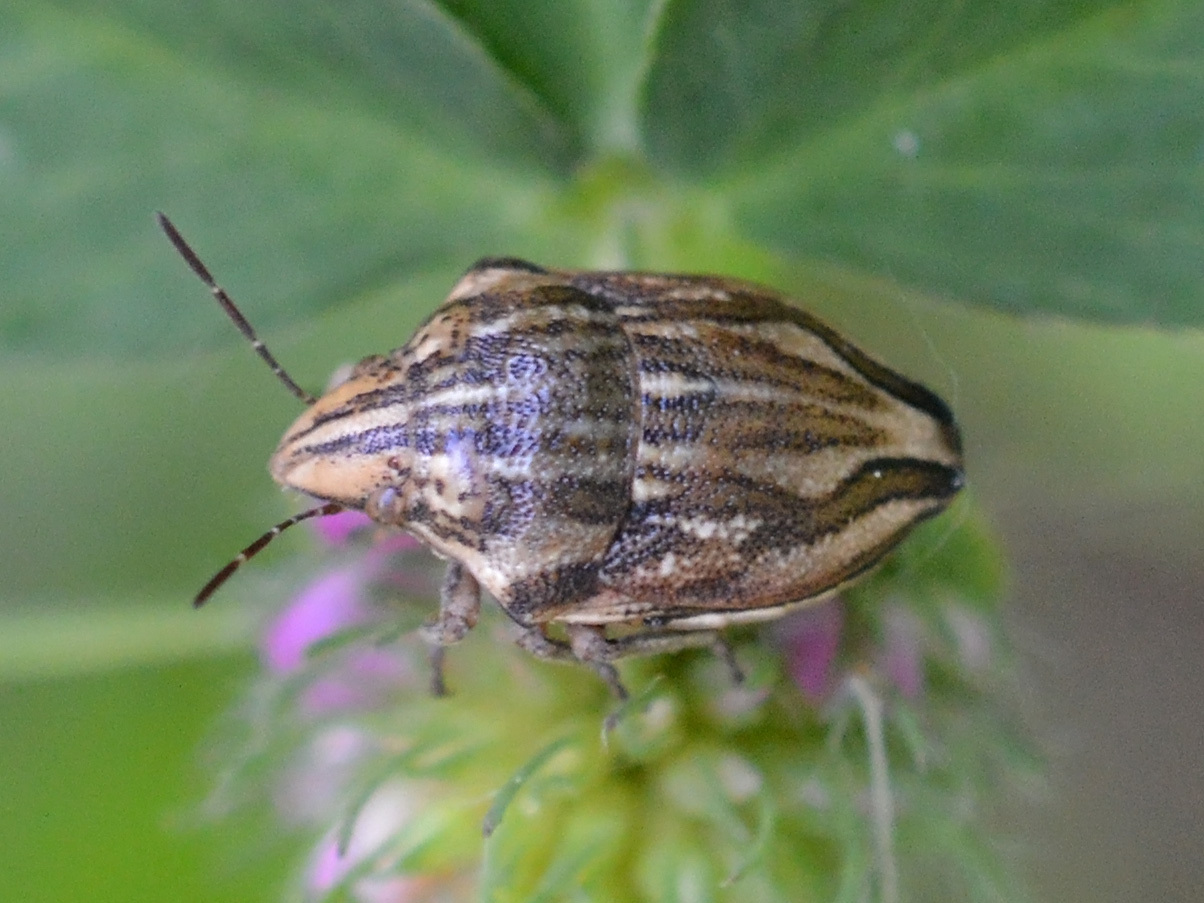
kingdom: Animalia
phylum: Arthropoda
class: Insecta
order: Hemiptera
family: Scutelleridae
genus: Odontotarsus
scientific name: Odontotarsus purpureolineatus
